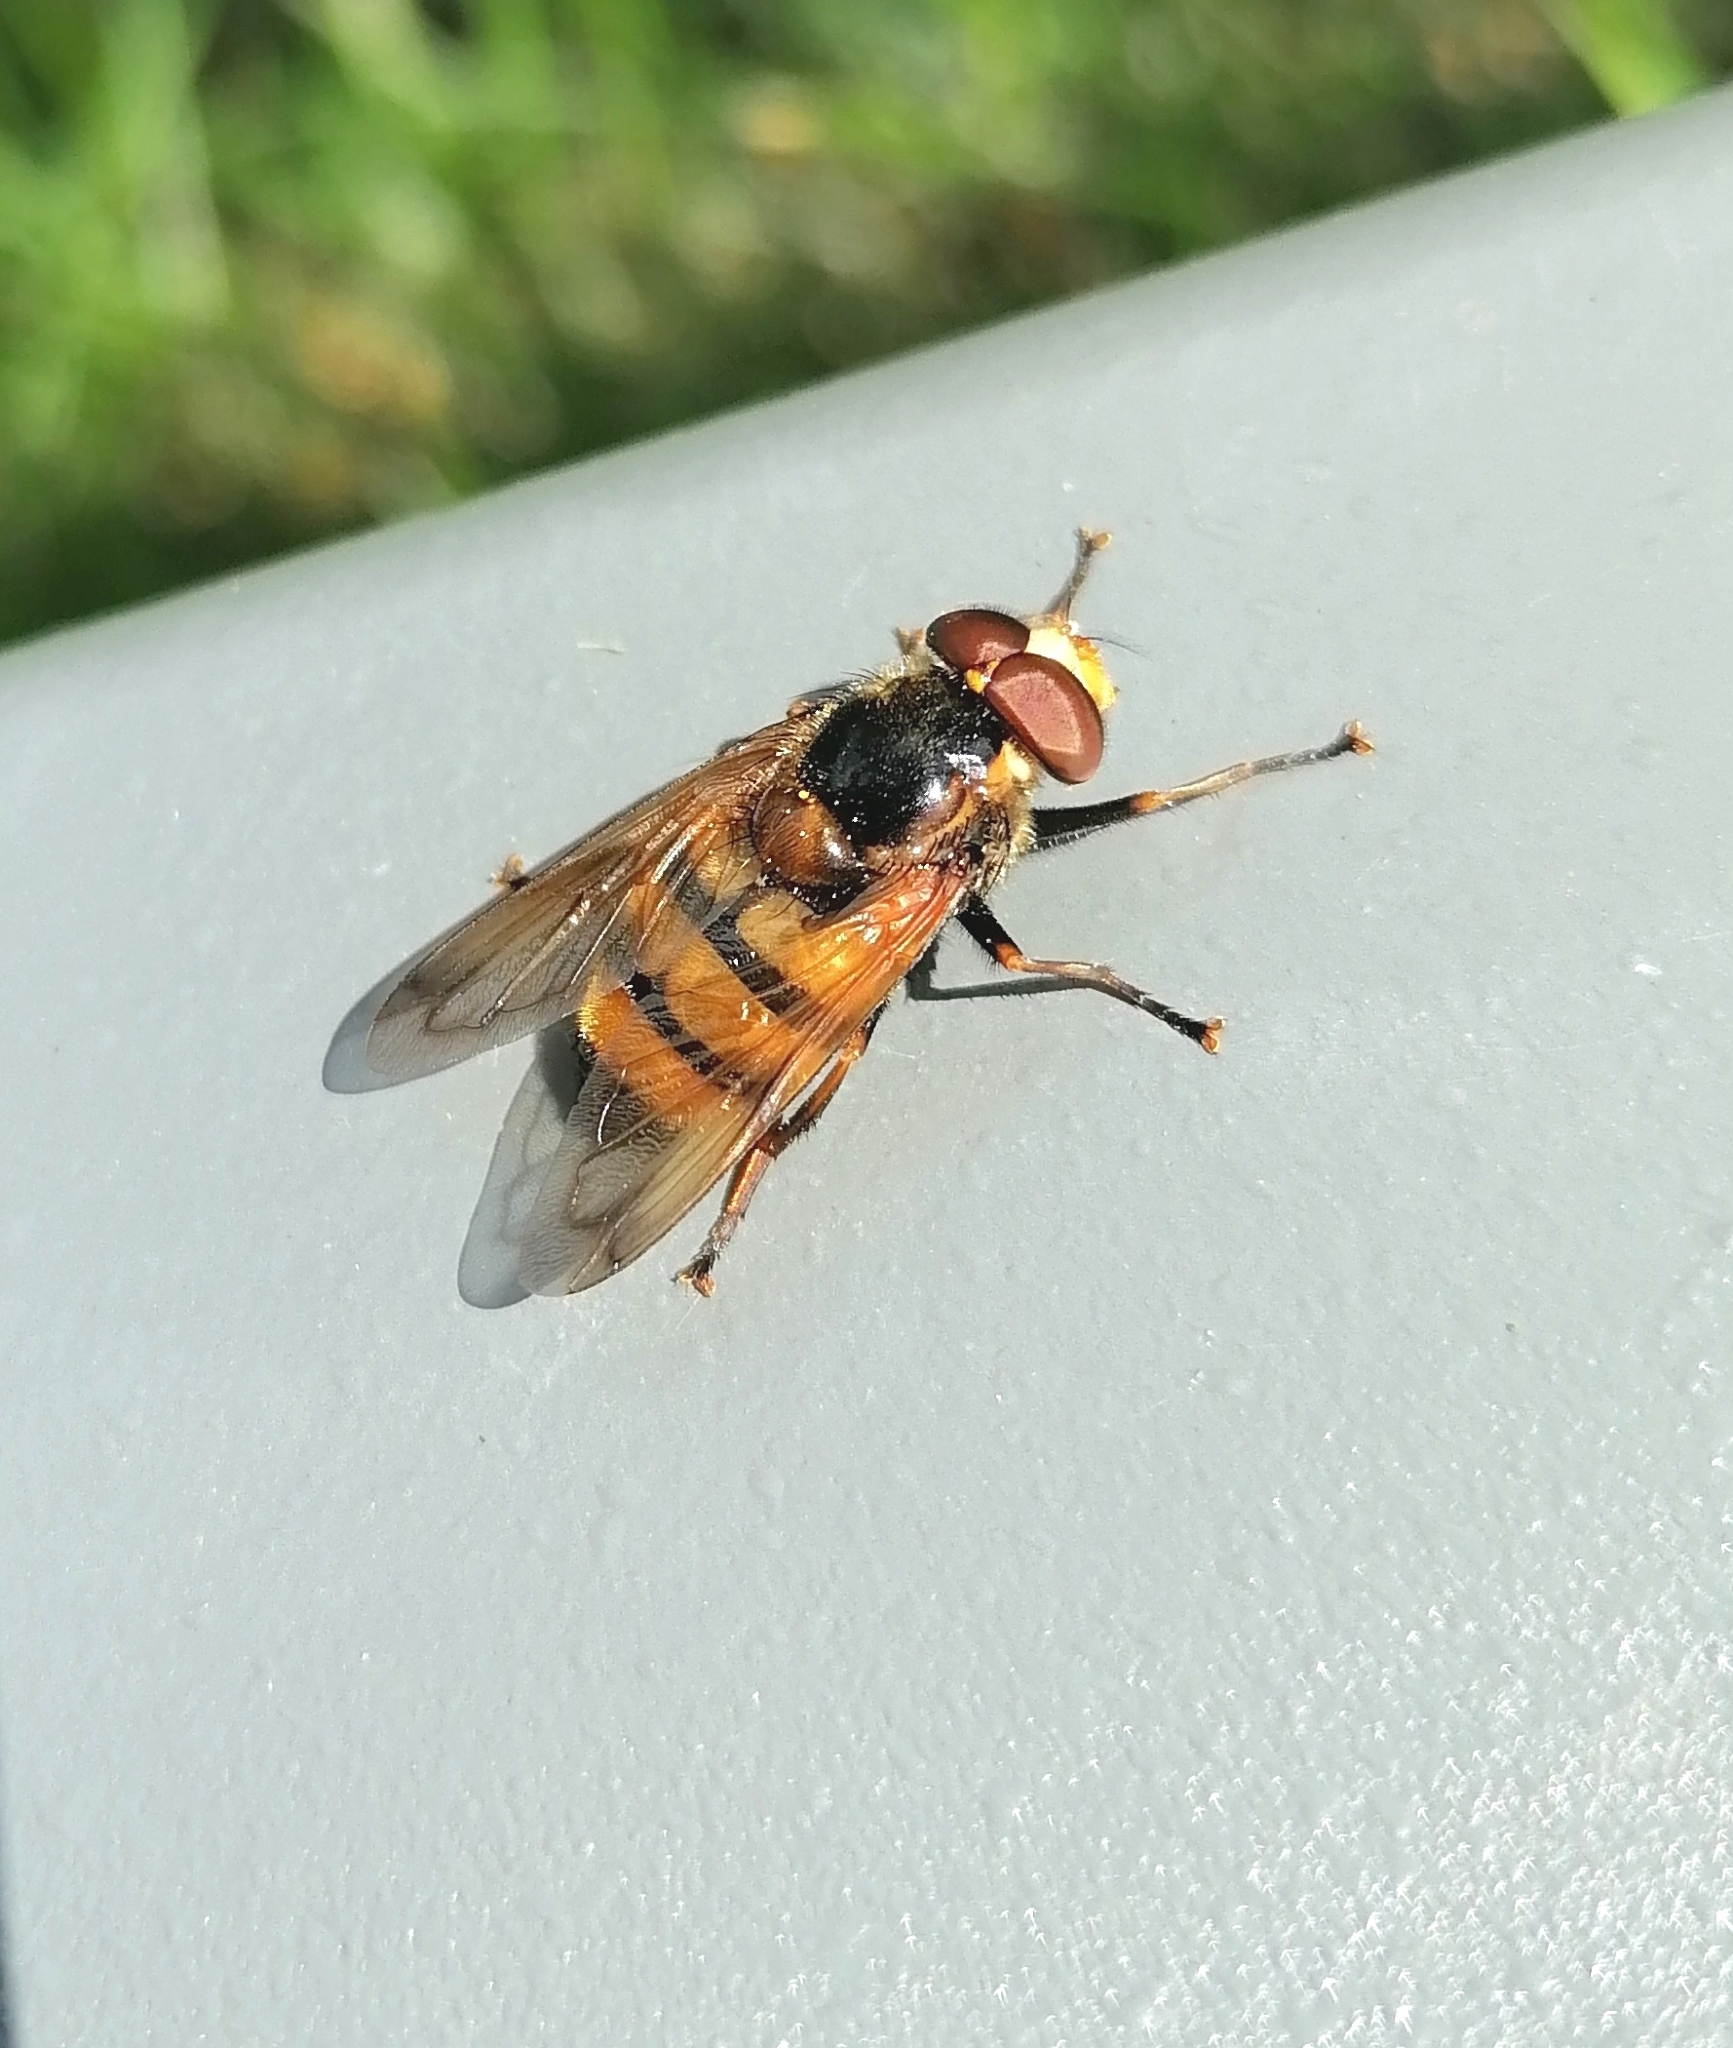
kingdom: Animalia
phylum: Arthropoda
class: Insecta
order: Diptera
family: Syrphidae
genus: Volucella
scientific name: Volucella inanis
